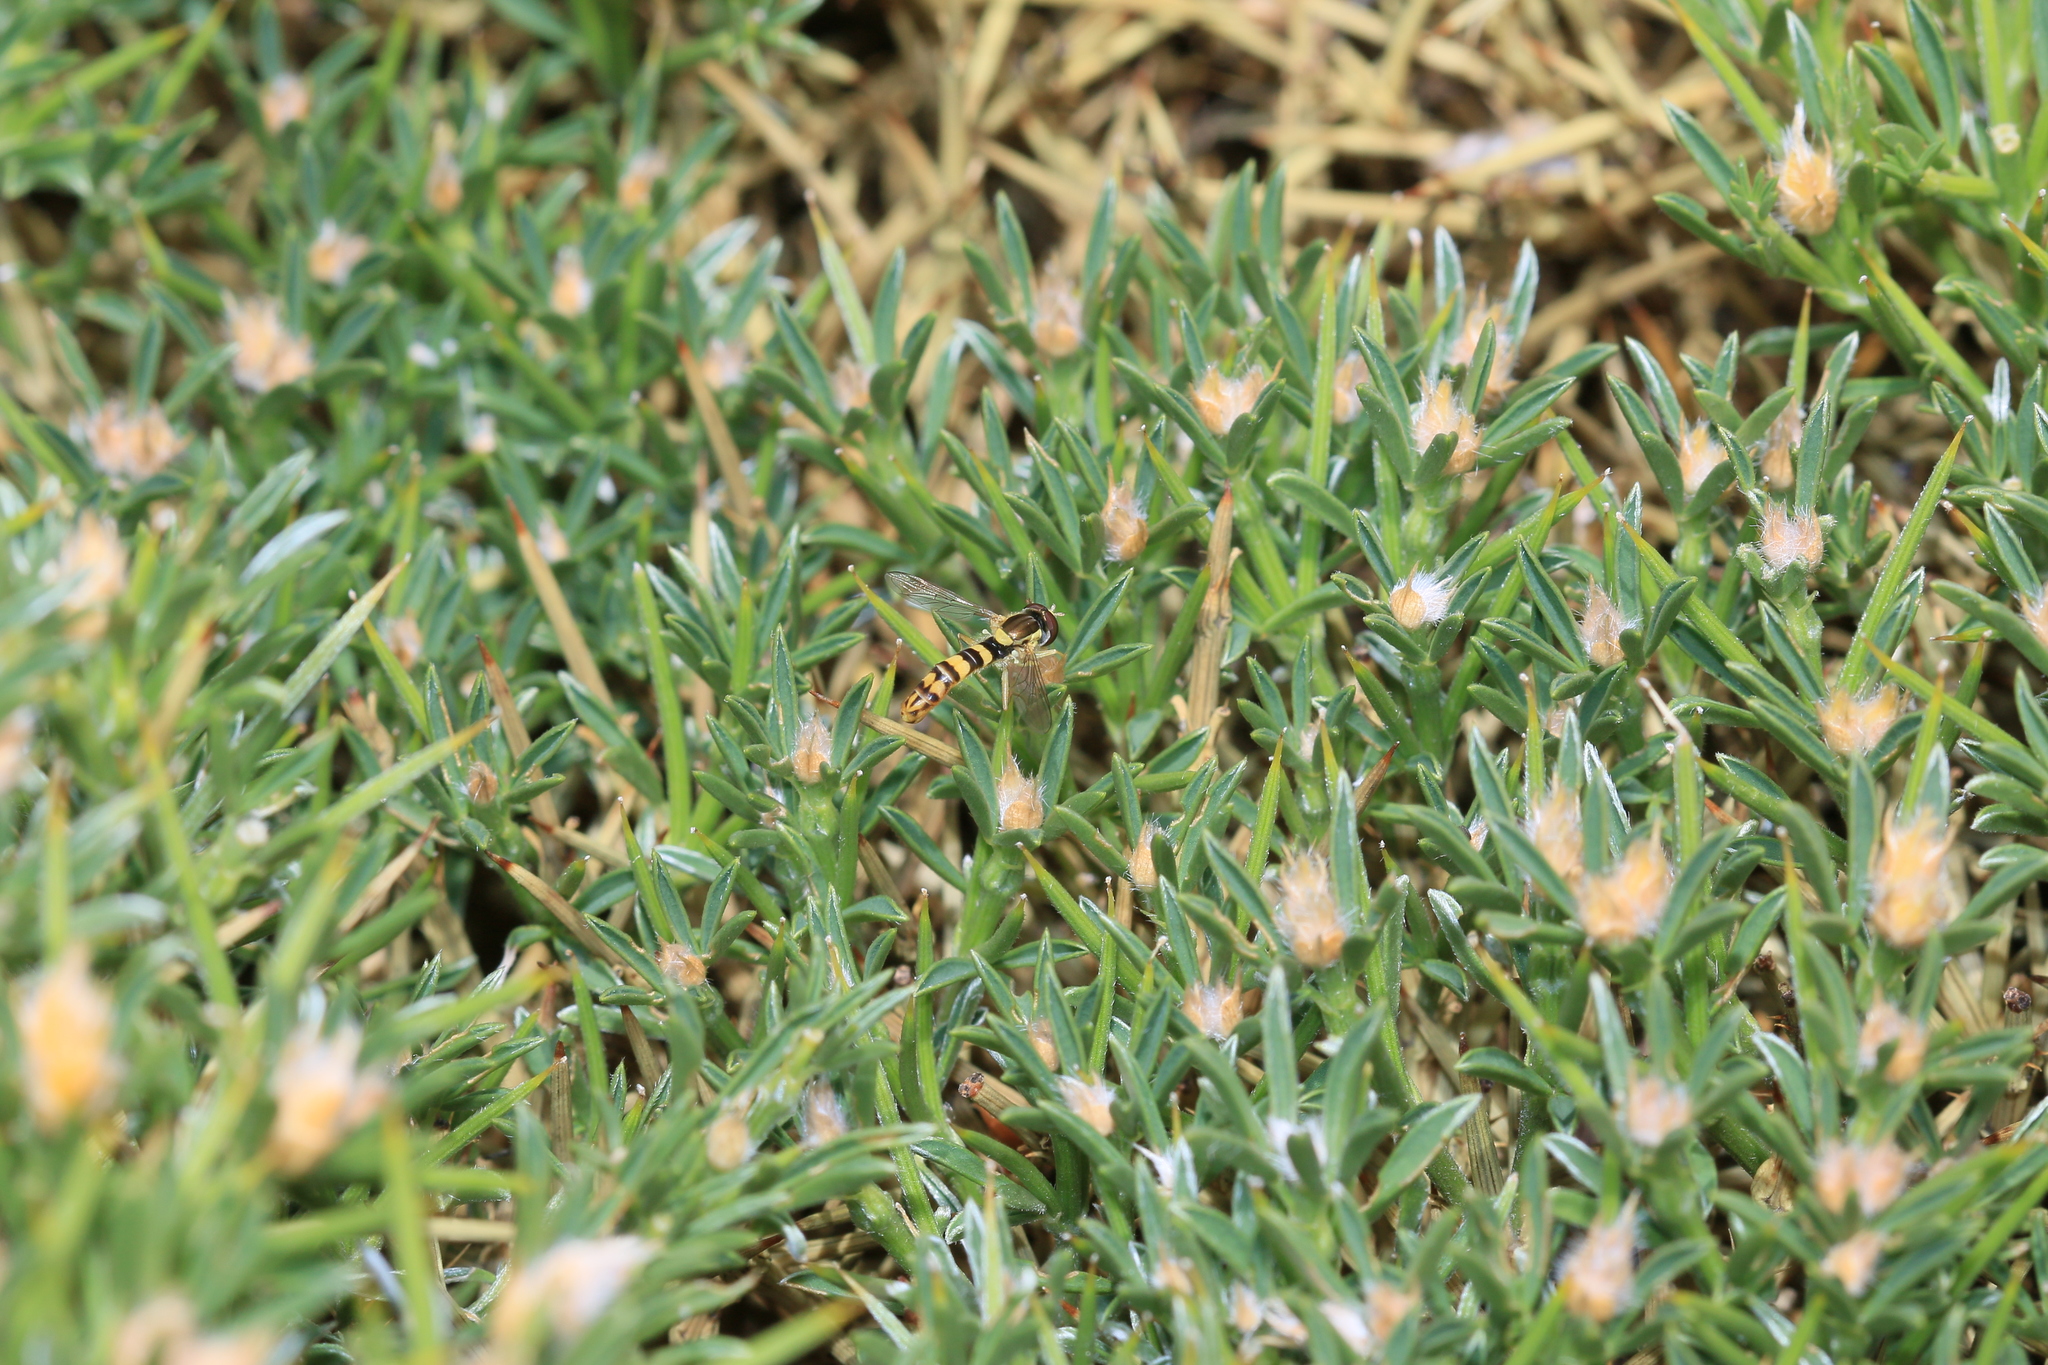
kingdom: Plantae
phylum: Tracheophyta
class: Magnoliopsida
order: Fabales
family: Fabaceae
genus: Echinospartum
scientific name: Echinospartum horridum
